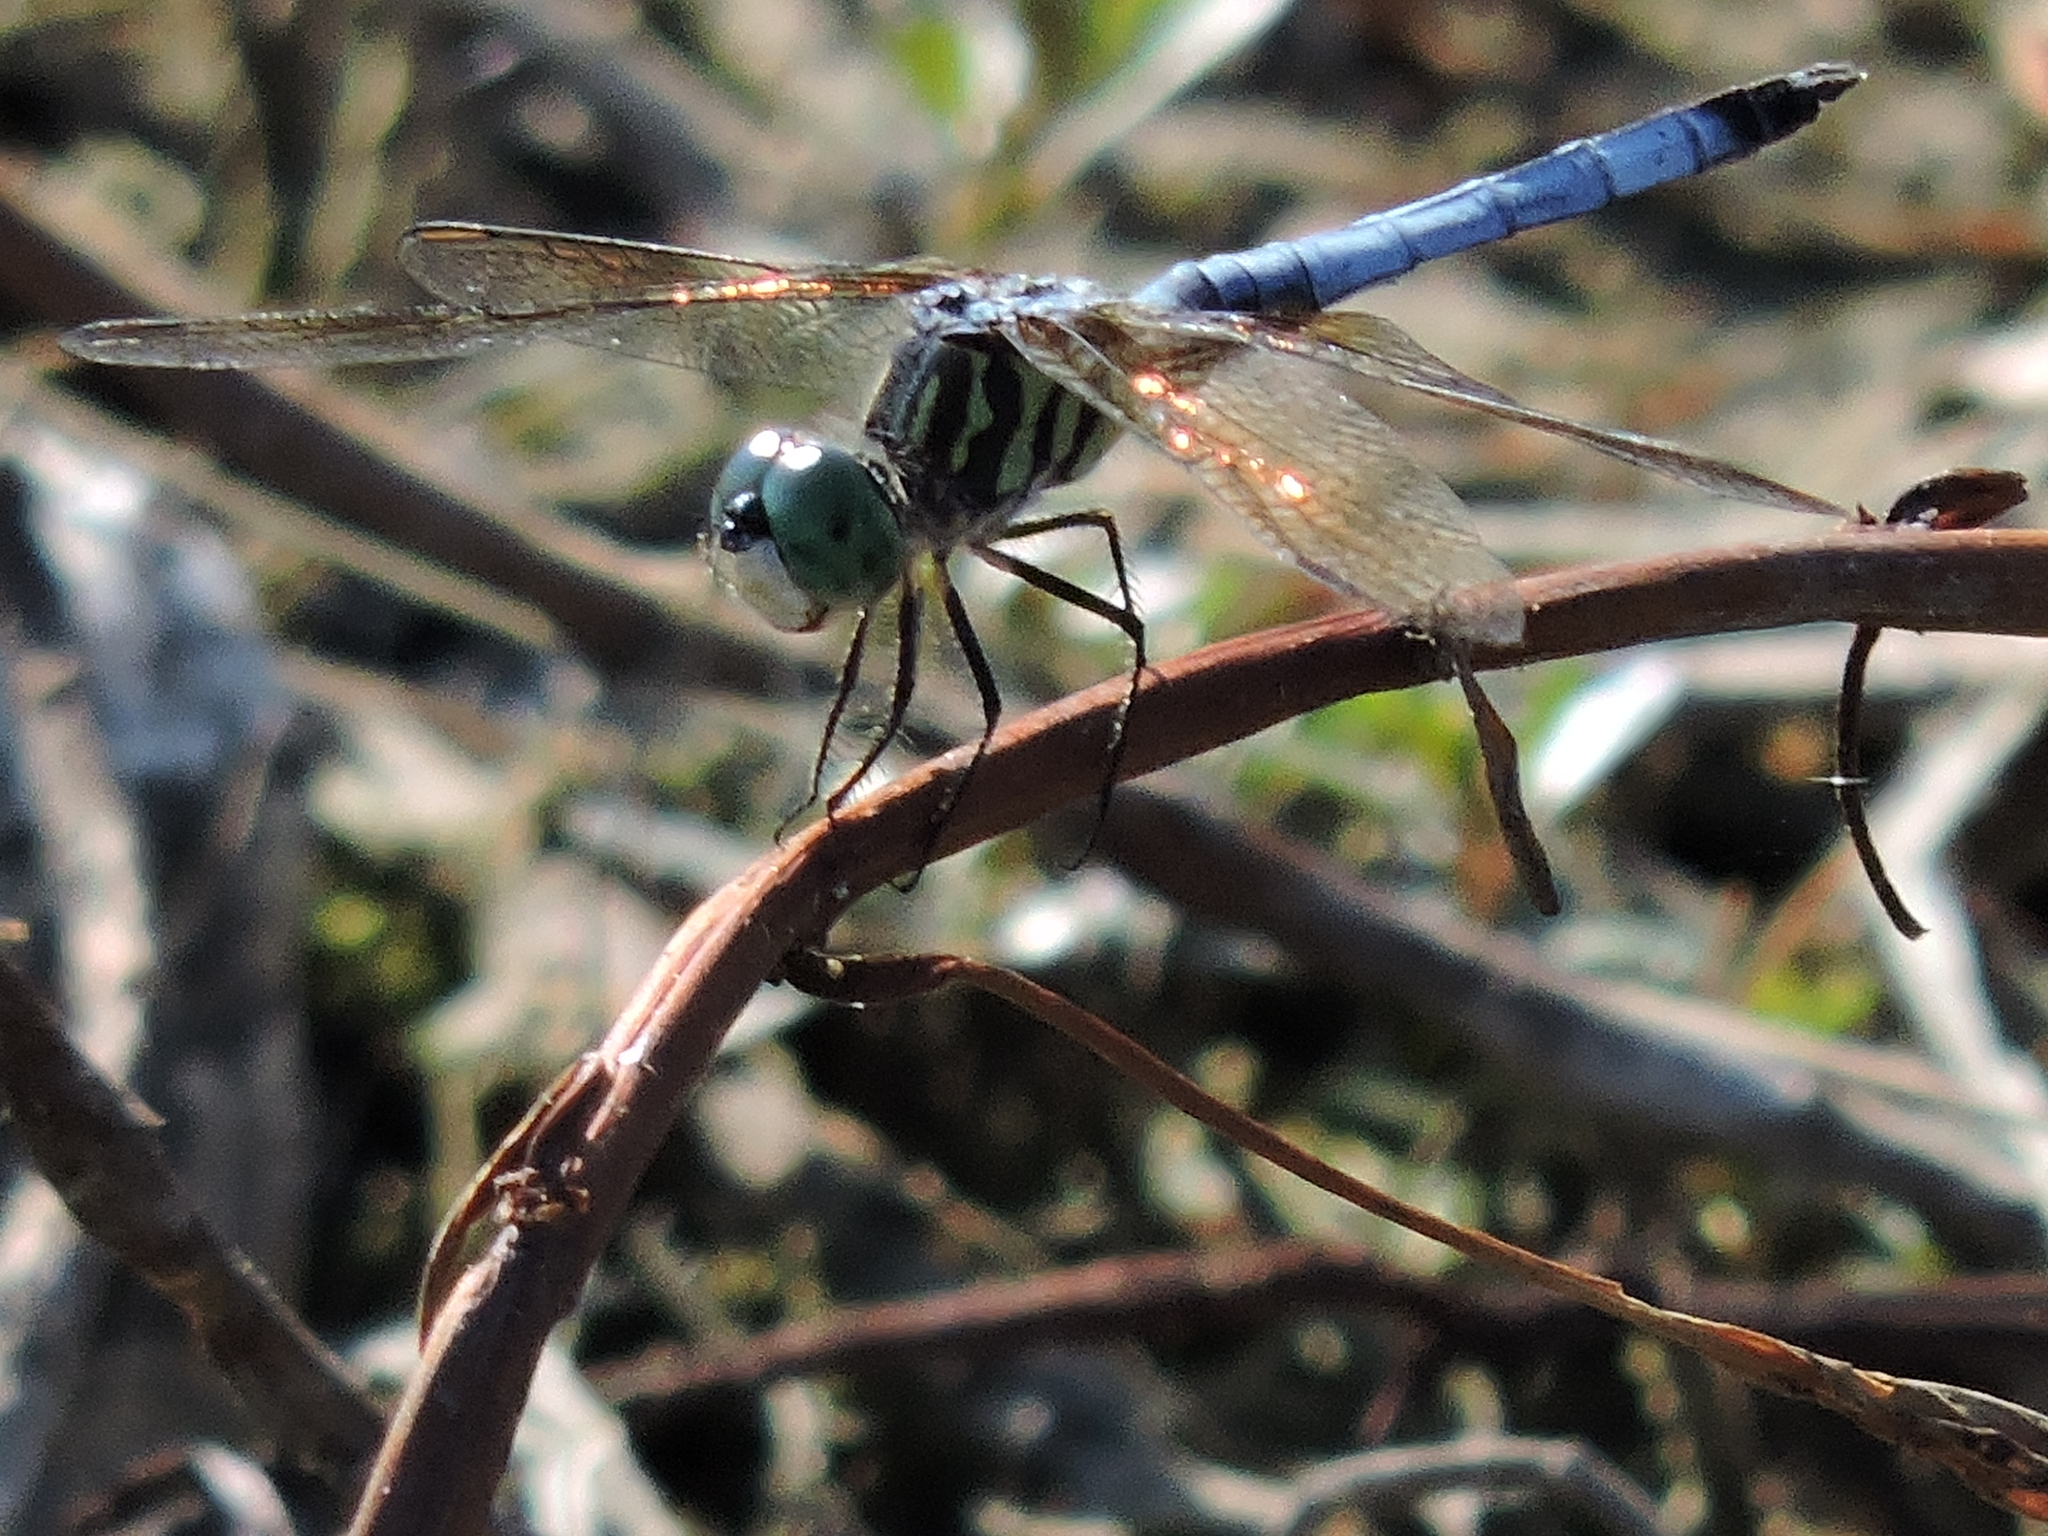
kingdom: Animalia
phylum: Arthropoda
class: Insecta
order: Odonata
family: Libellulidae
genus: Pachydiplax
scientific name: Pachydiplax longipennis
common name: Blue dasher
